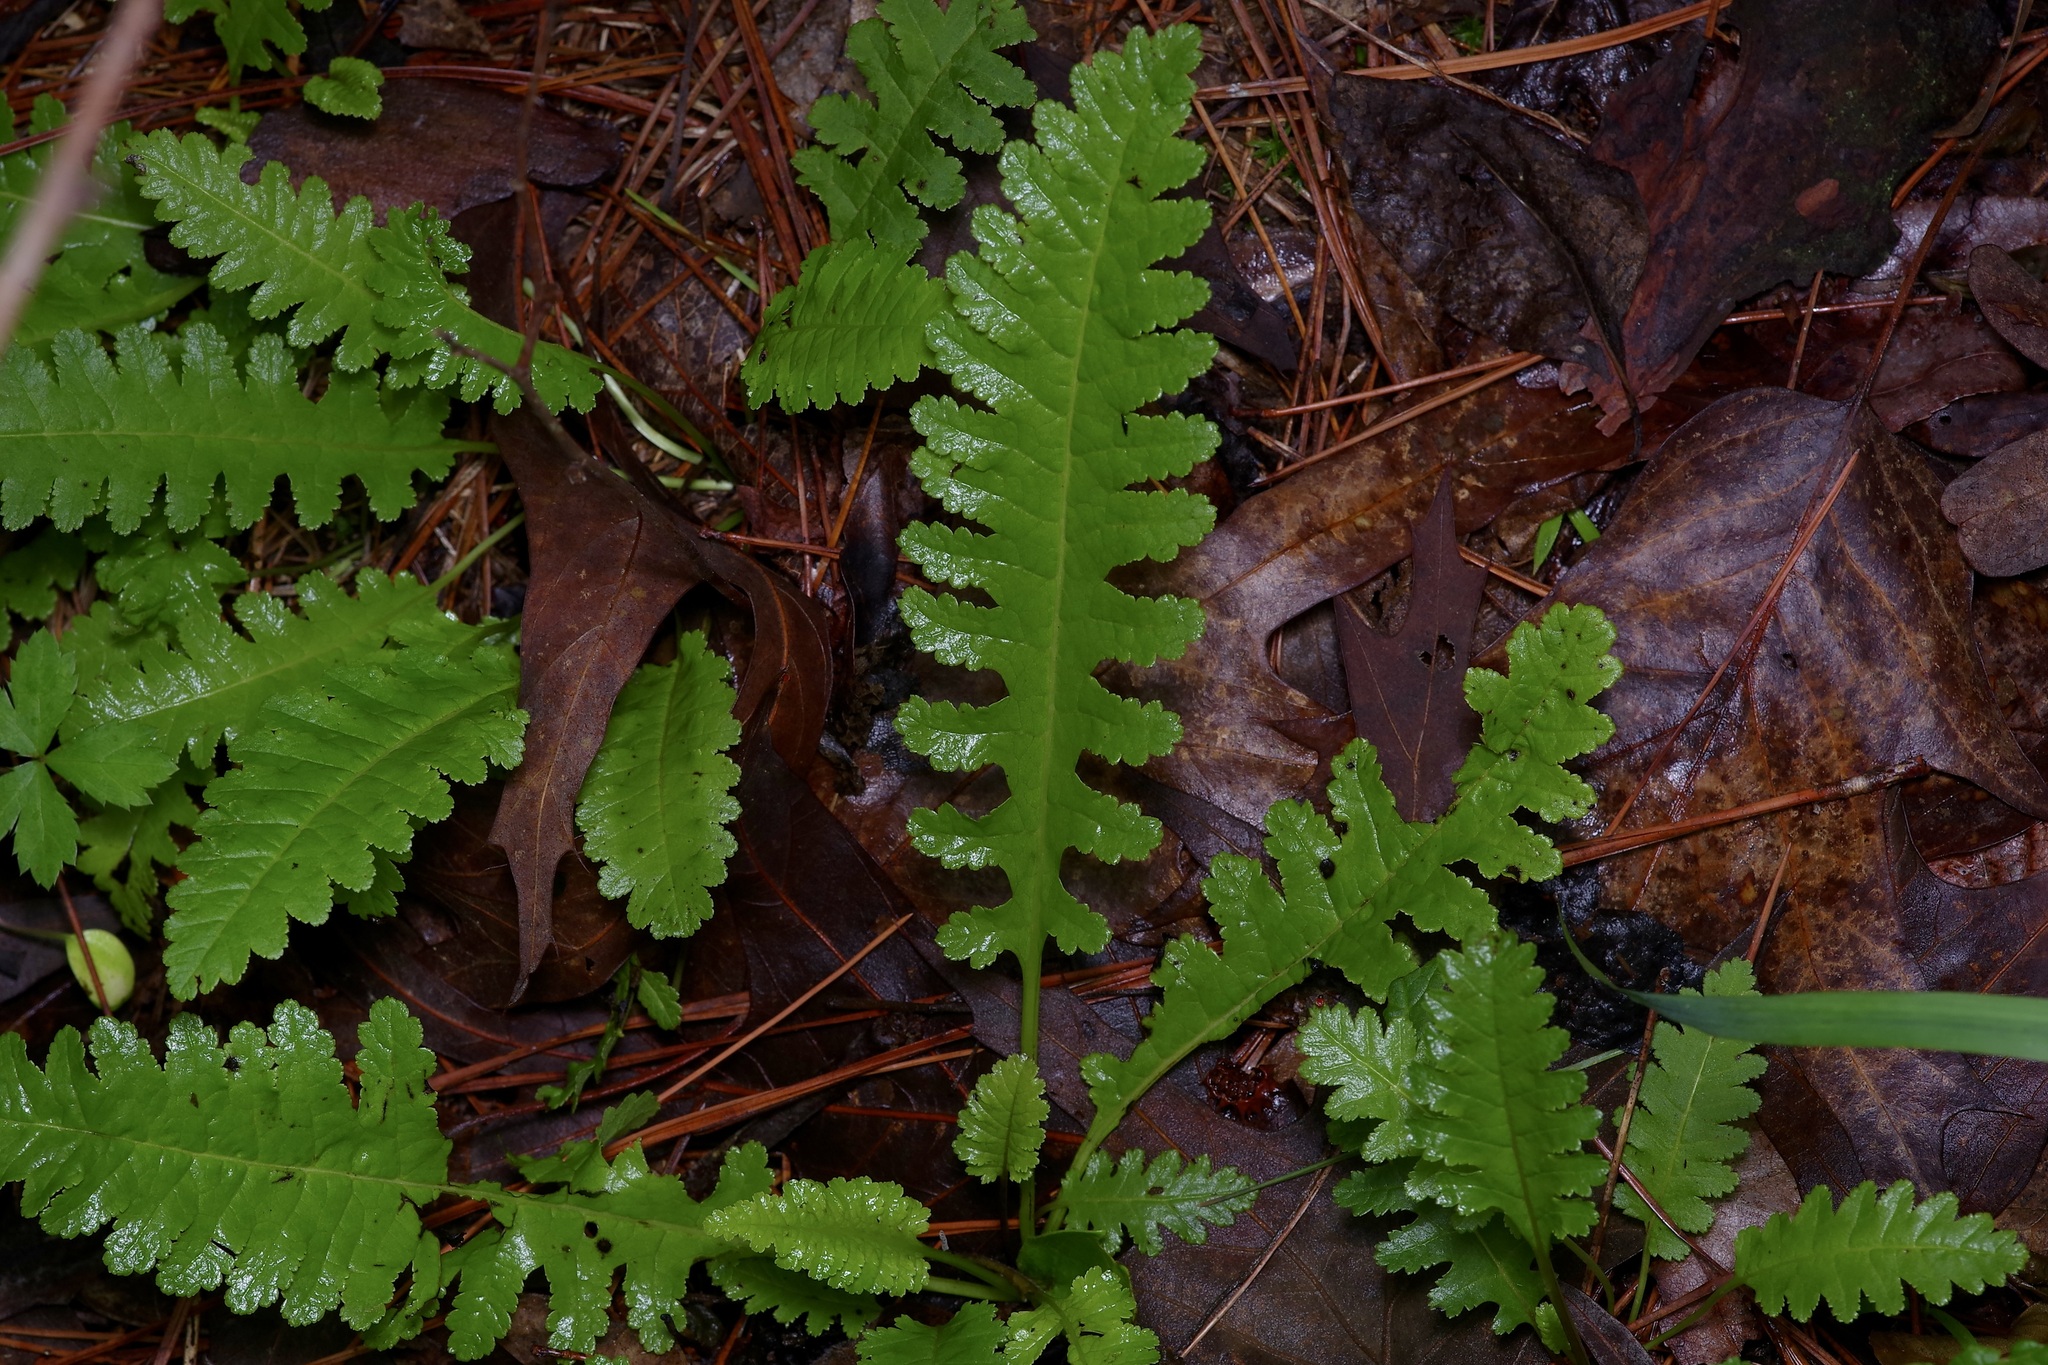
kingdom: Plantae
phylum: Tracheophyta
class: Magnoliopsida
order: Lamiales
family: Orobanchaceae
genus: Pedicularis
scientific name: Pedicularis canadensis
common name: Early lousewort
